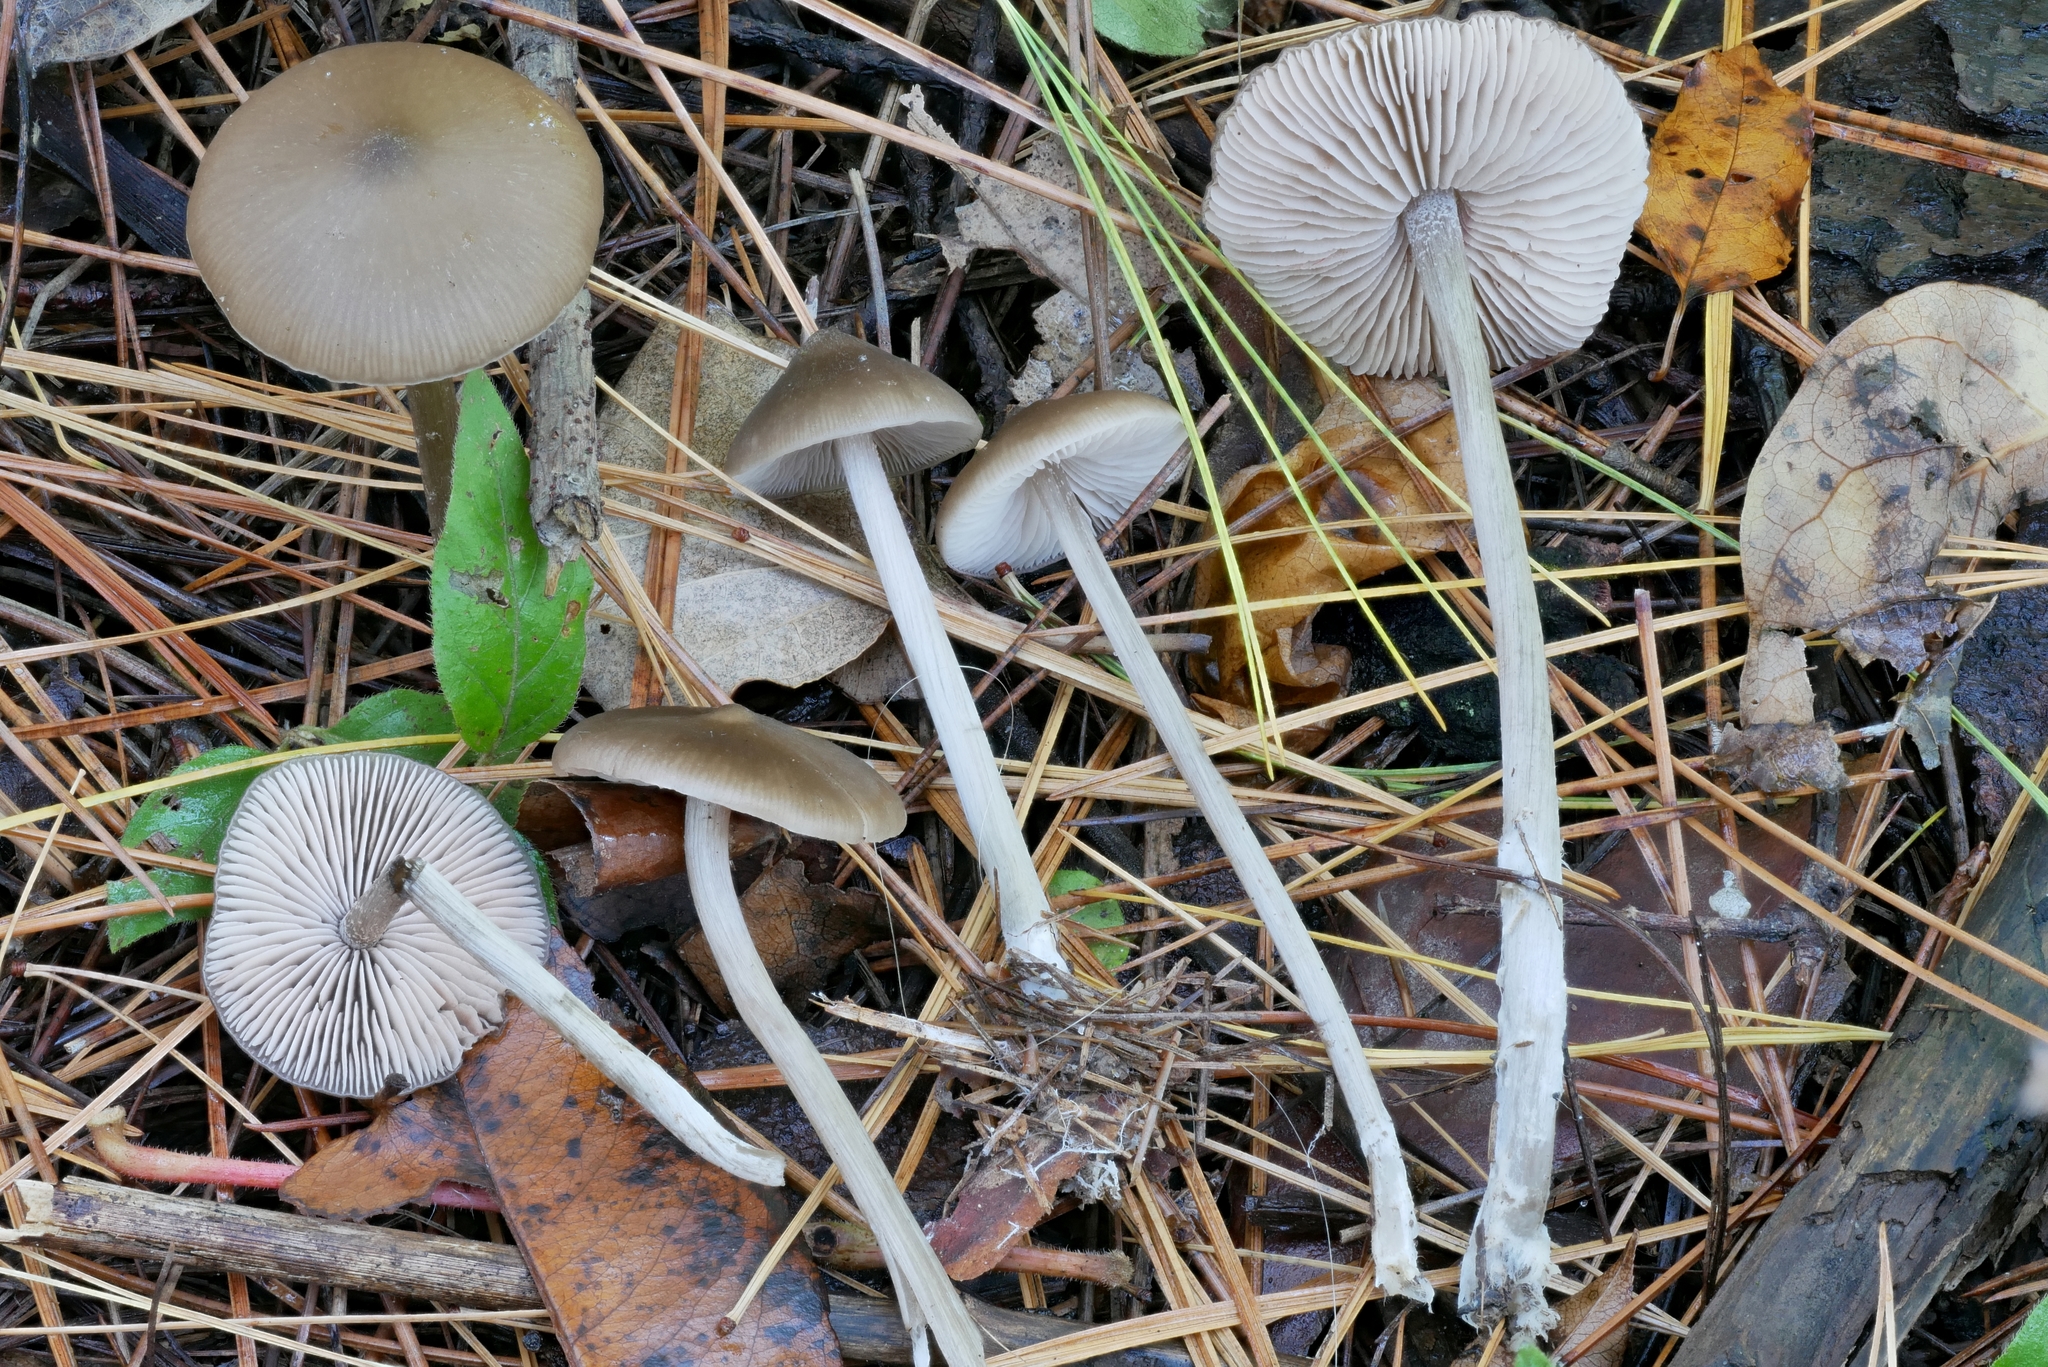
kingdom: Fungi
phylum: Basidiomycota
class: Agaricomycetes
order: Agaricales
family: Entolomataceae
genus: Entoloma
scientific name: Entoloma psammophilohebes
